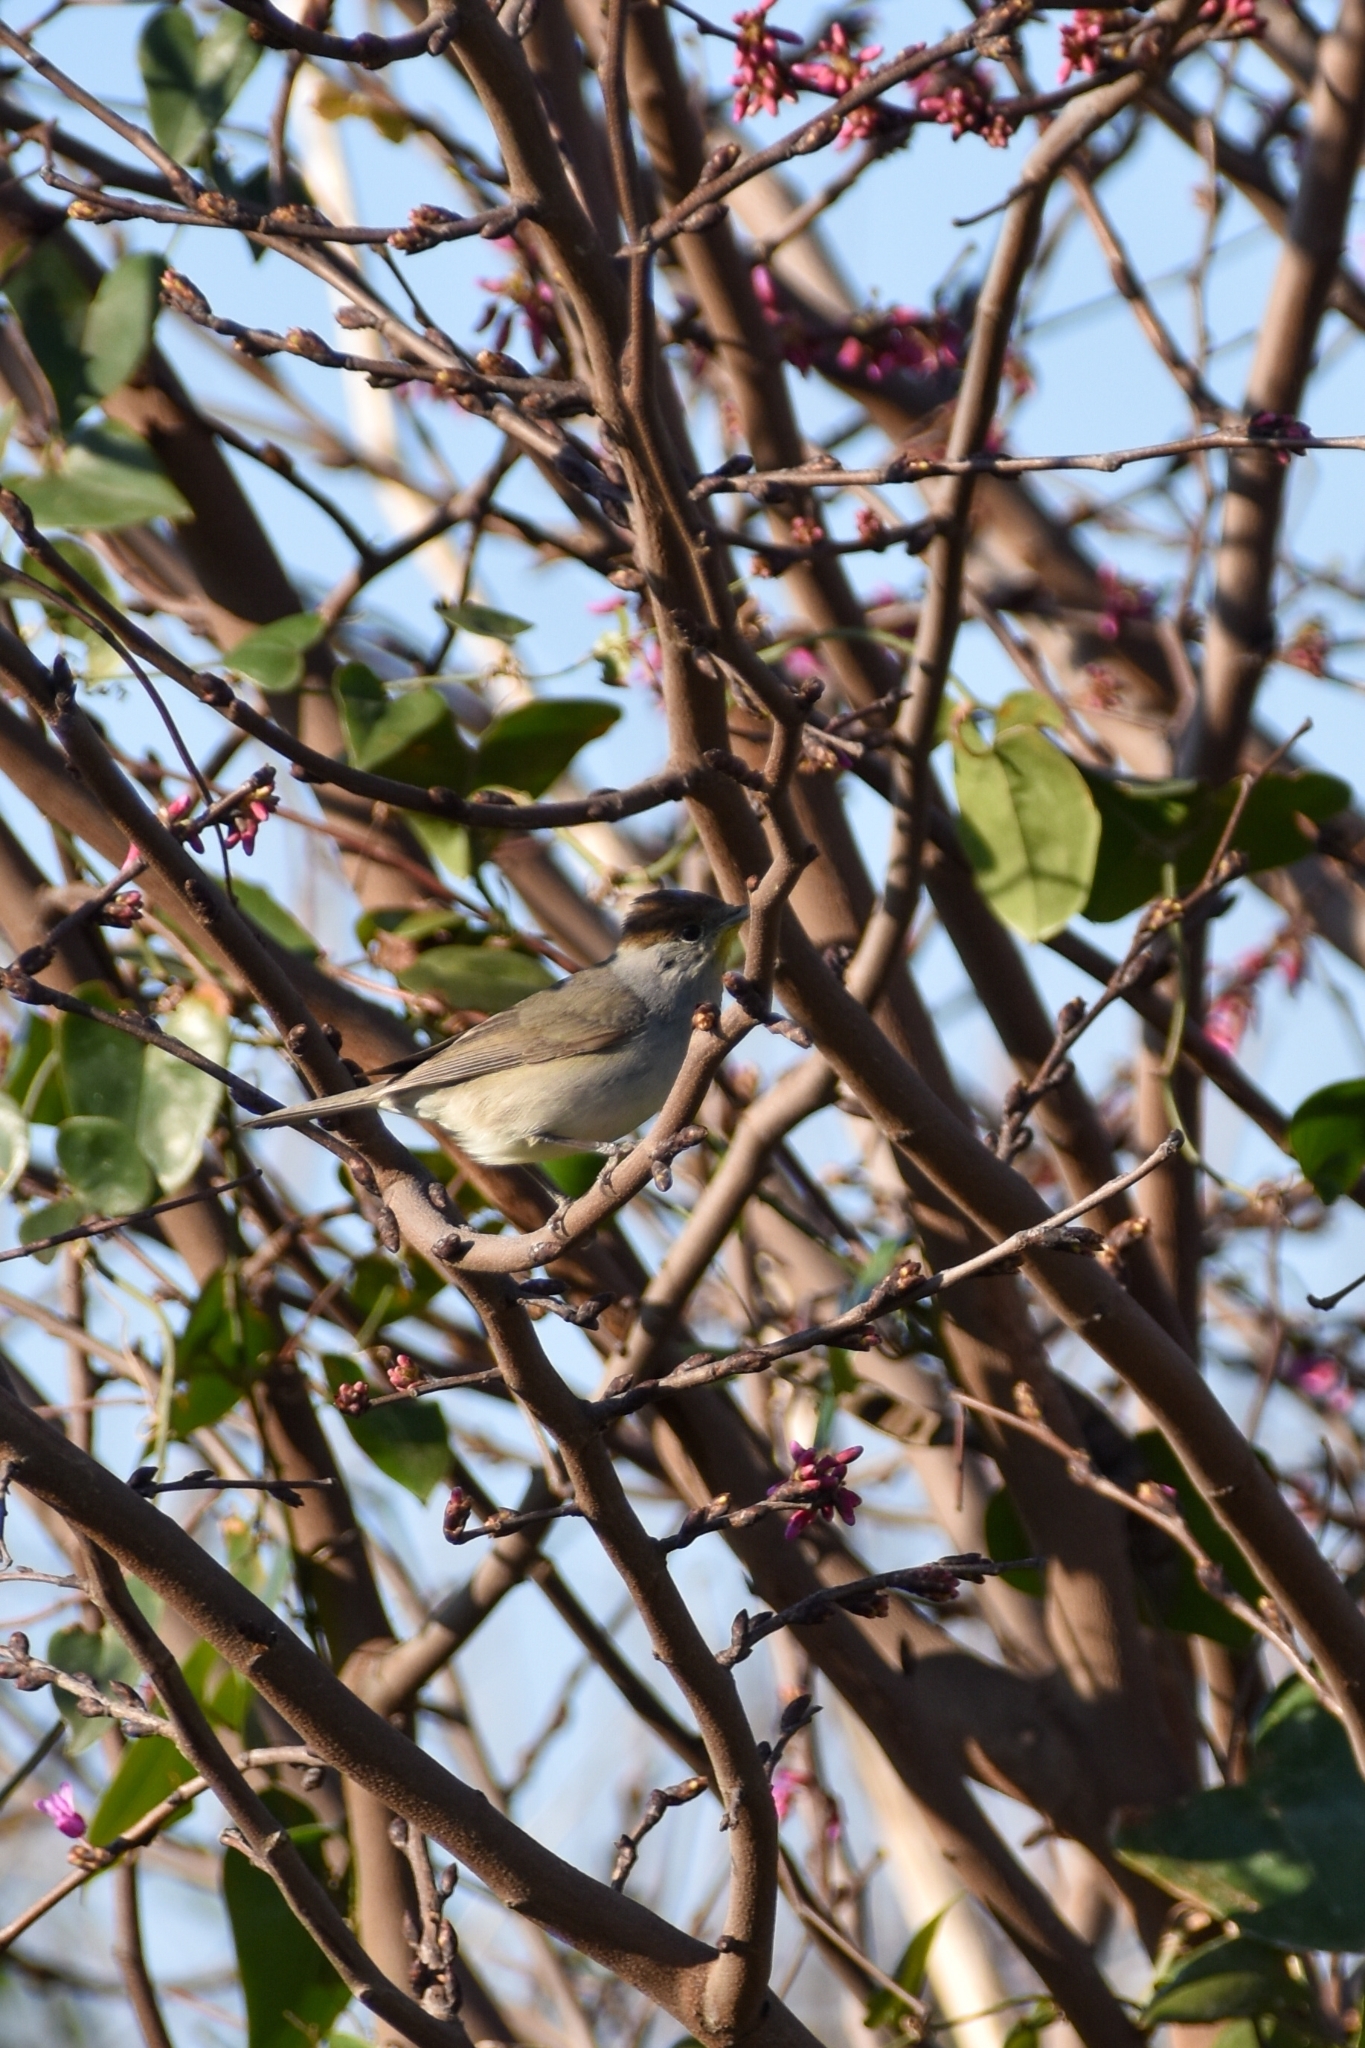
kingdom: Animalia
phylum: Chordata
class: Aves
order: Passeriformes
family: Sylviidae
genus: Sylvia
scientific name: Sylvia atricapilla
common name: Eurasian blackcap
